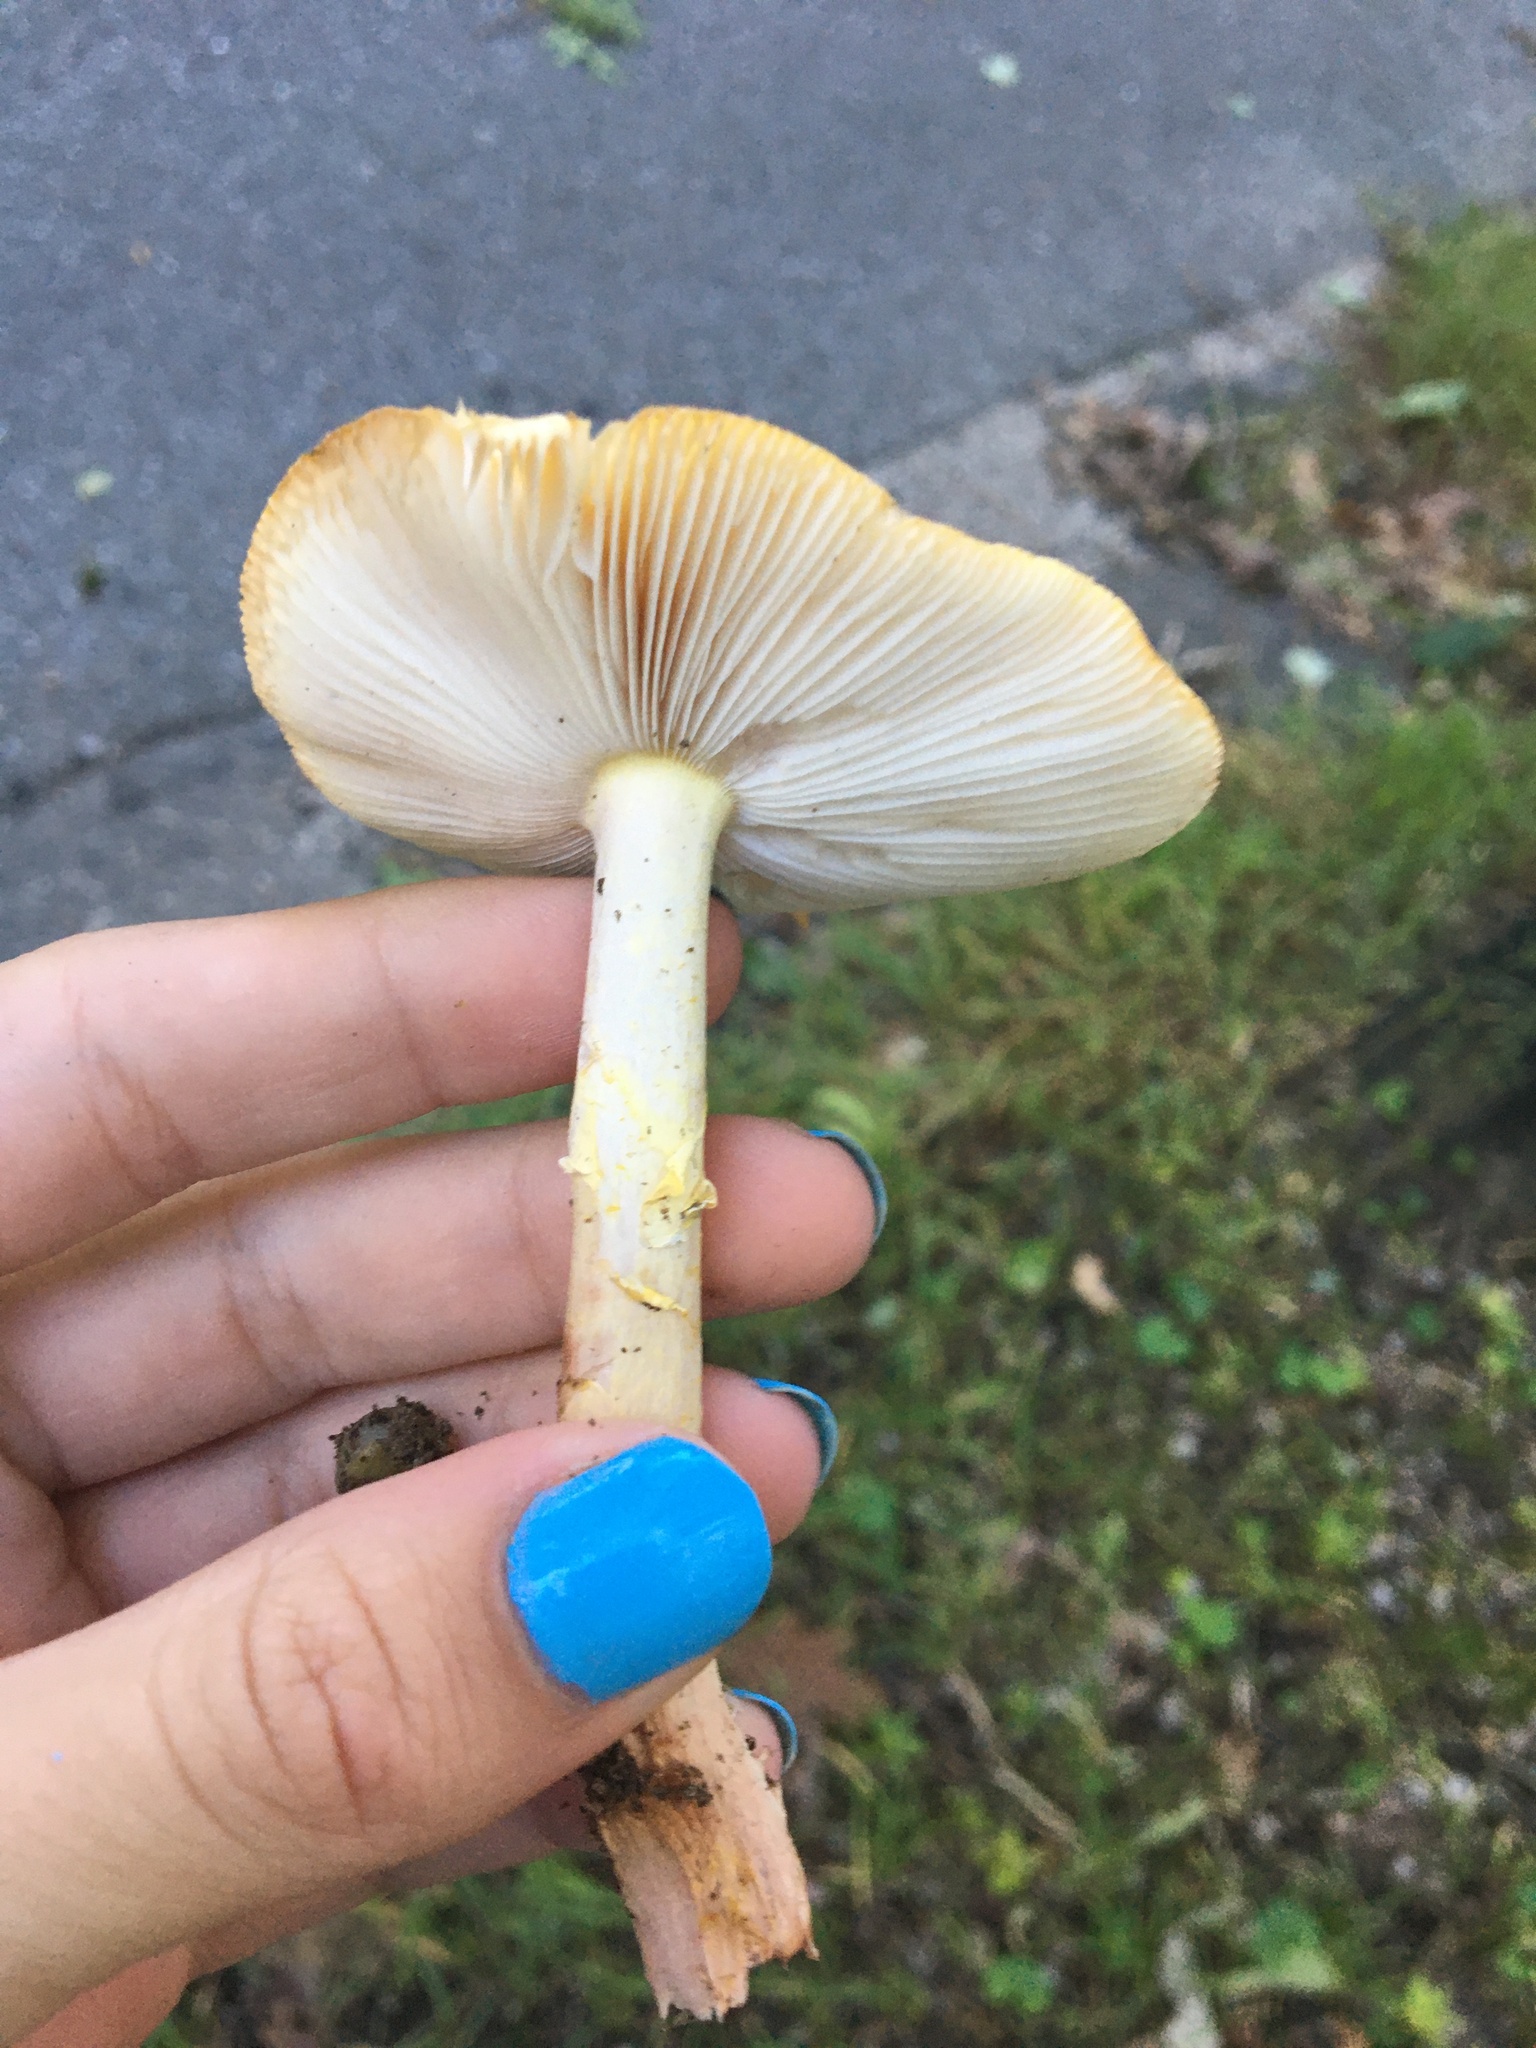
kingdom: Fungi
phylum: Basidiomycota
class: Agaricomycetes
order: Agaricales
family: Amanitaceae
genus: Amanita
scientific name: Amanita flavorubens
